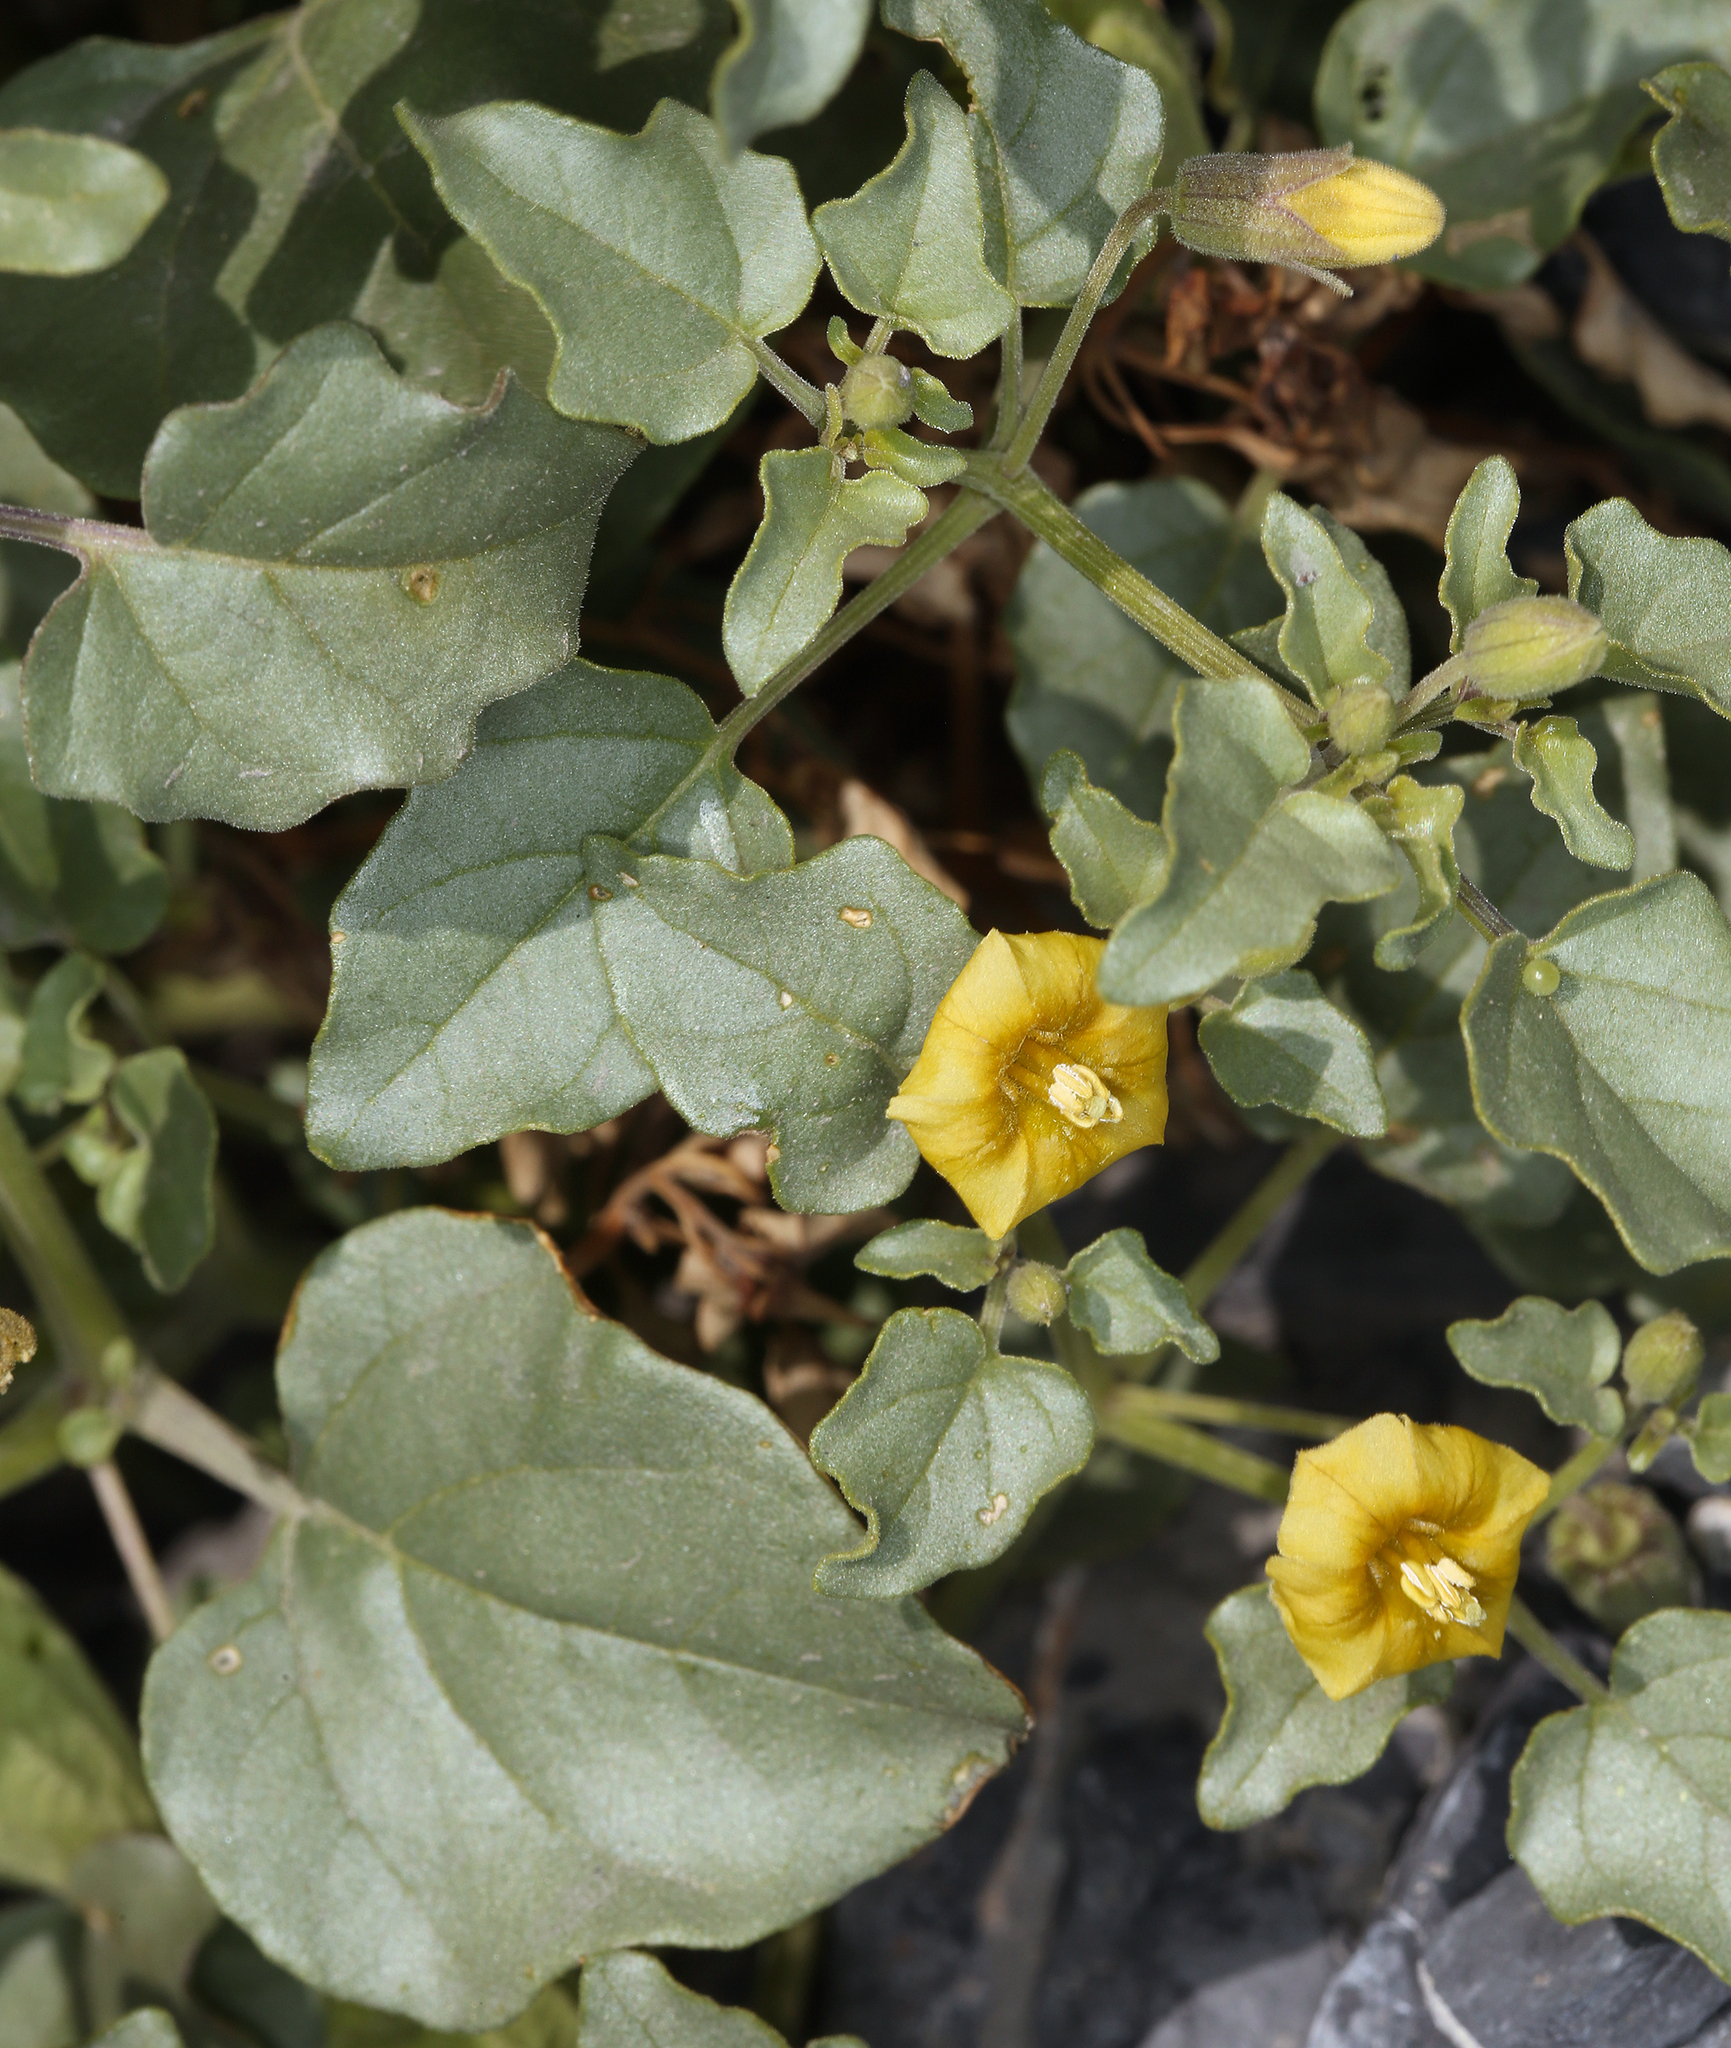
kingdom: Plantae
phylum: Tracheophyta
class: Magnoliopsida
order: Solanales
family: Solanaceae
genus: Physalis
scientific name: Physalis crassifolia
